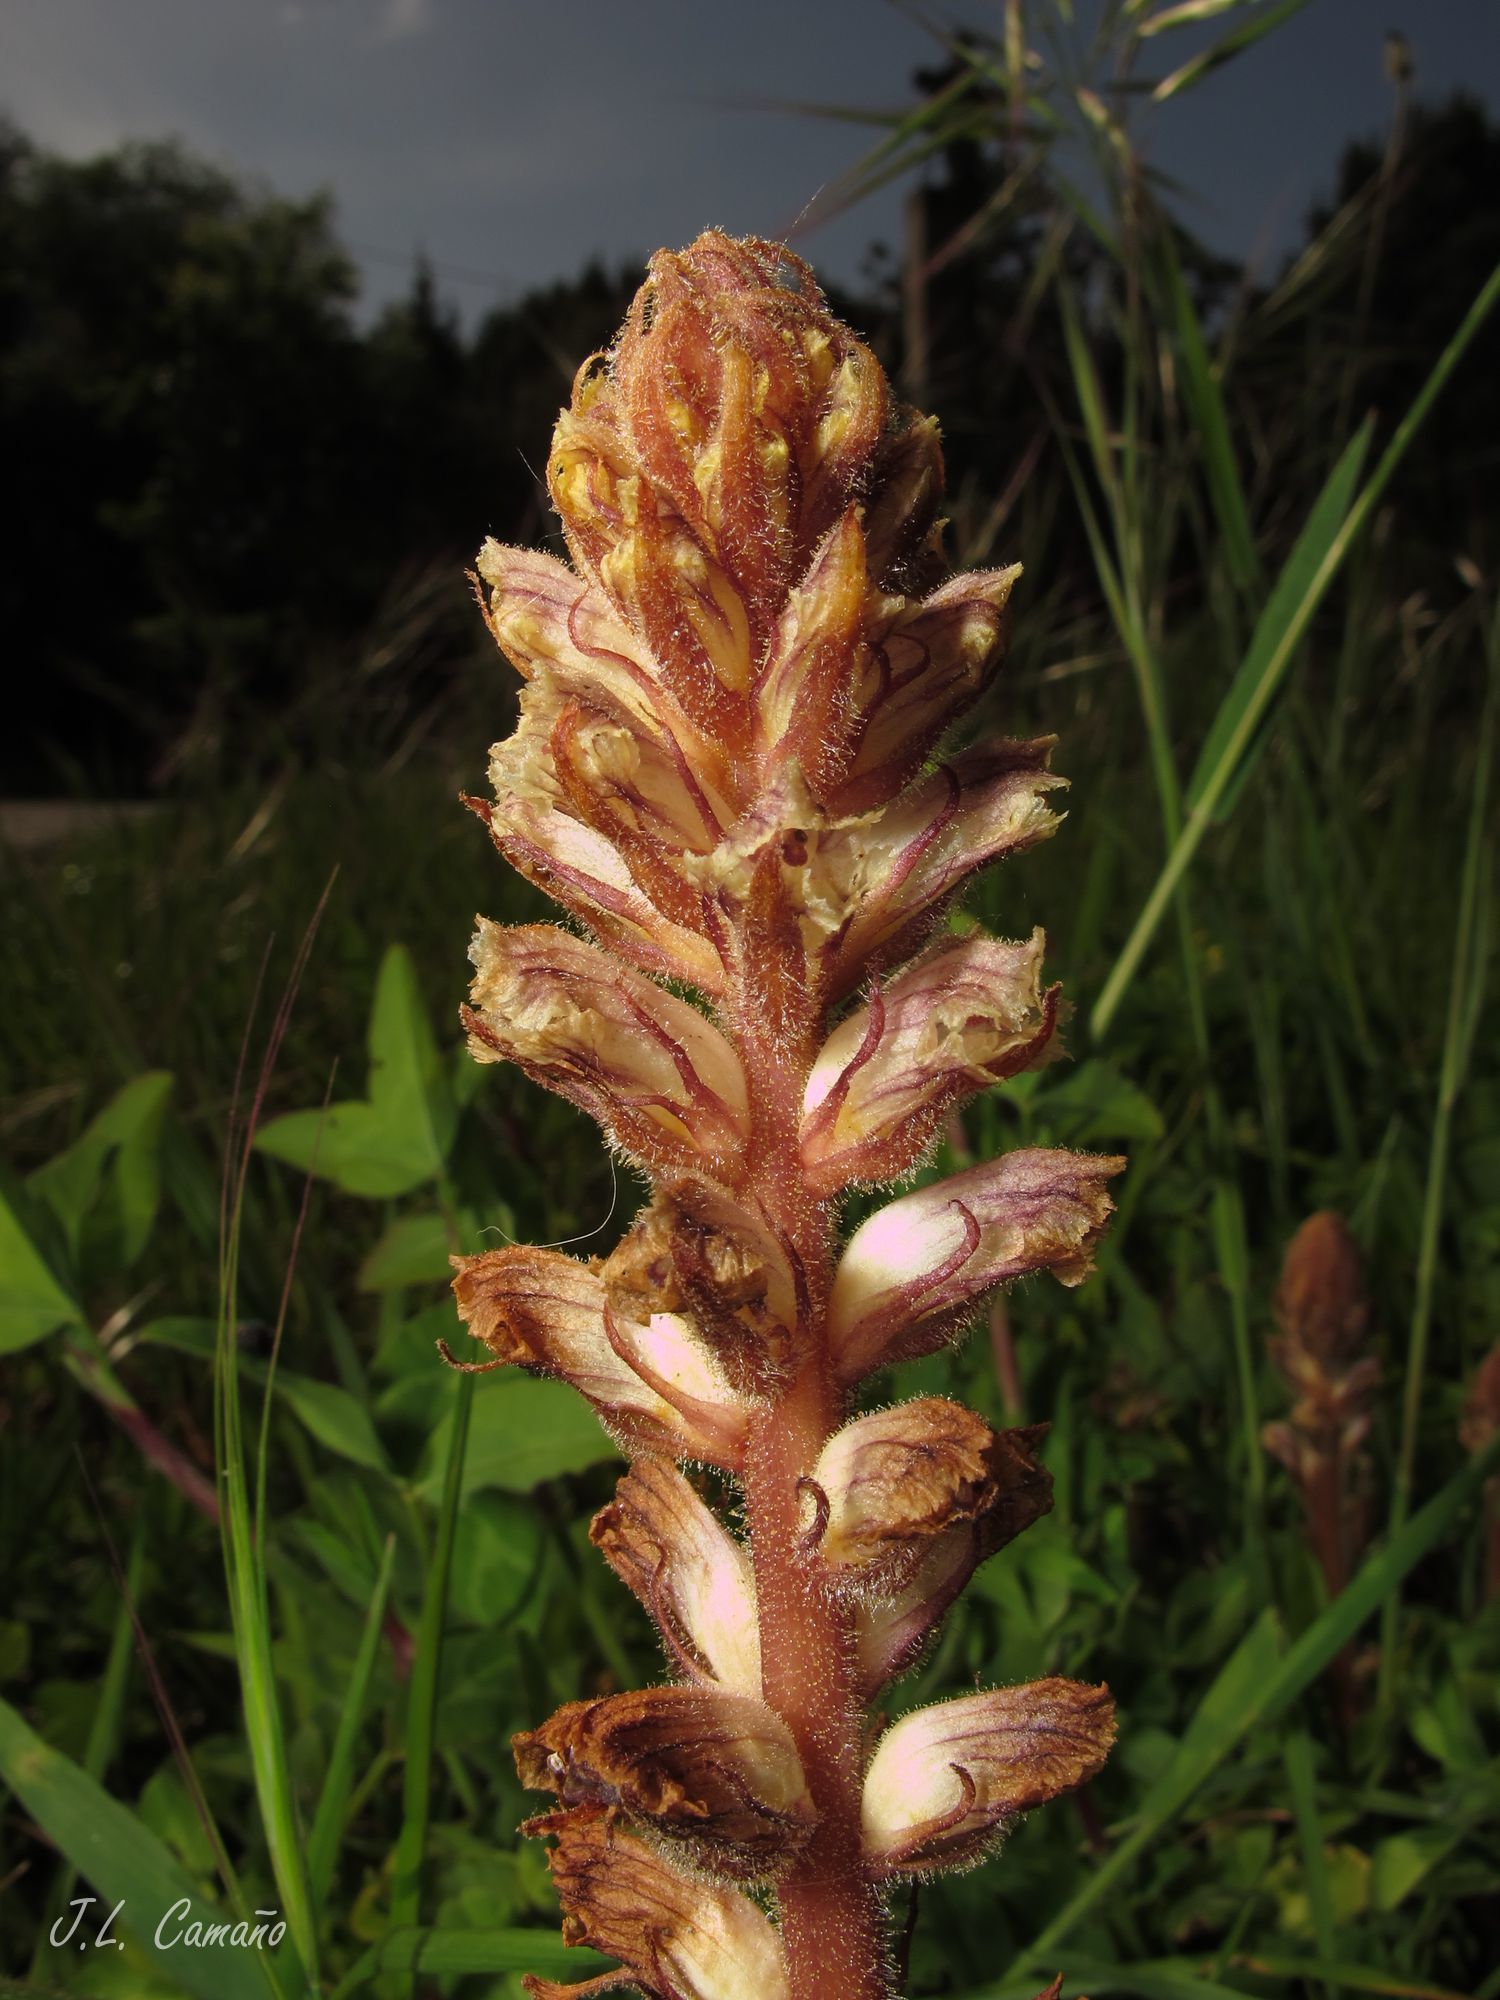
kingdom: Plantae
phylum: Tracheophyta
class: Magnoliopsida
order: Lamiales
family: Orobanchaceae
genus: Orobanche
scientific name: Orobanche minor
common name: Common broomrape
